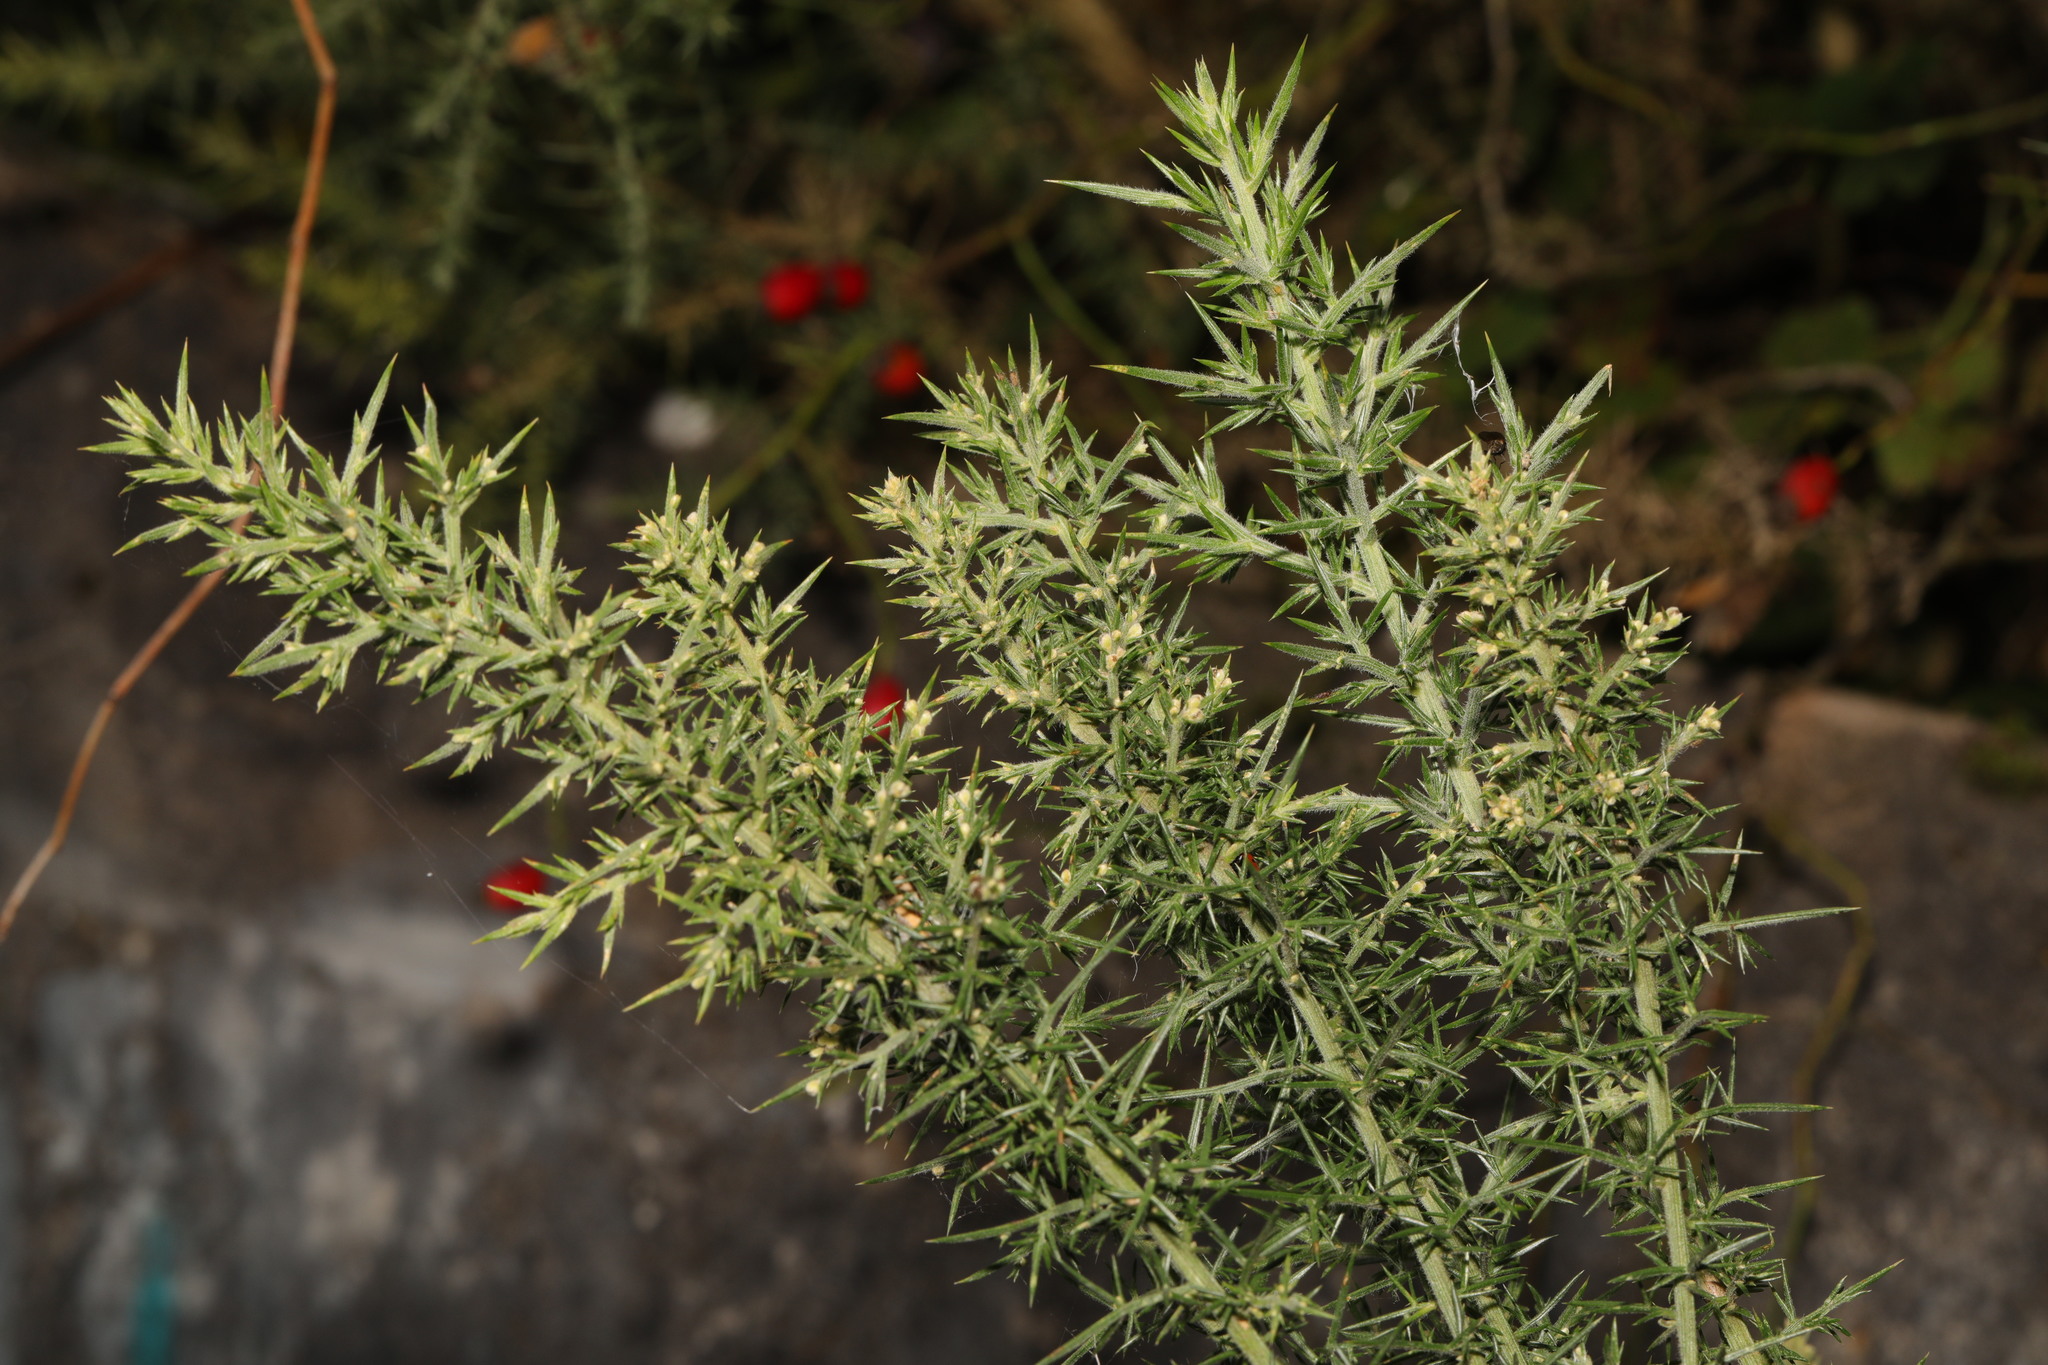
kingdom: Plantae
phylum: Tracheophyta
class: Magnoliopsida
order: Fabales
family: Fabaceae
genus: Ulex
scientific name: Ulex europaeus
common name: Common gorse
